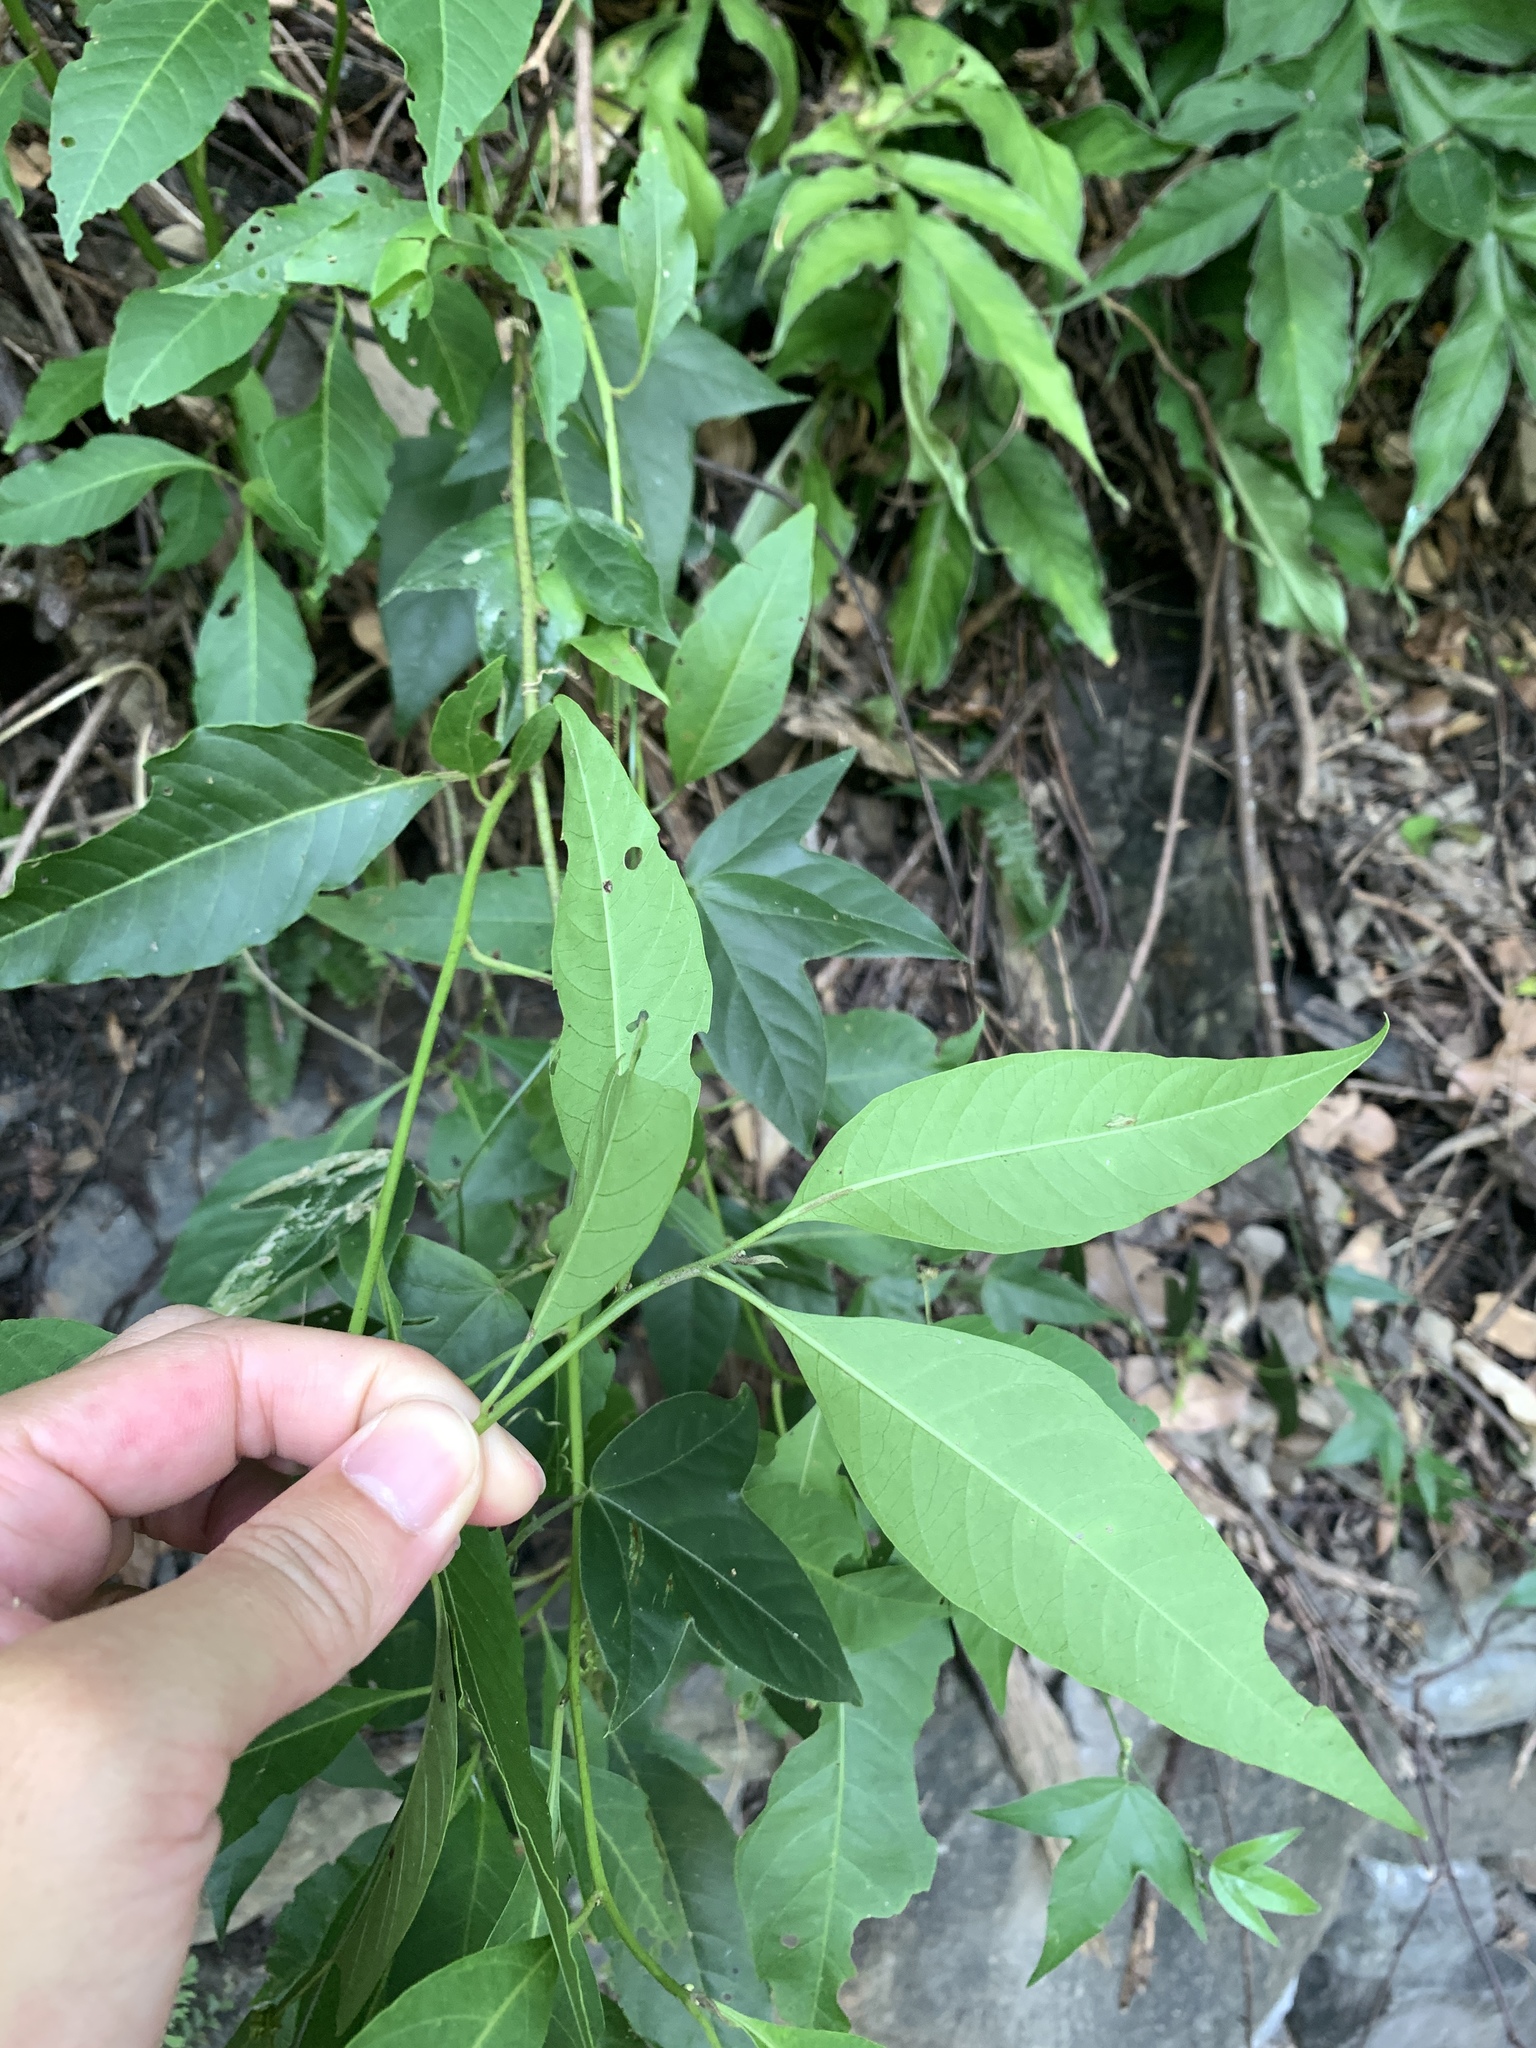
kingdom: Plantae
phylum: Tracheophyta
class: Magnoliopsida
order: Caryophyllales
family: Amaranthaceae
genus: Deeringia
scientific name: Deeringia polysperma
